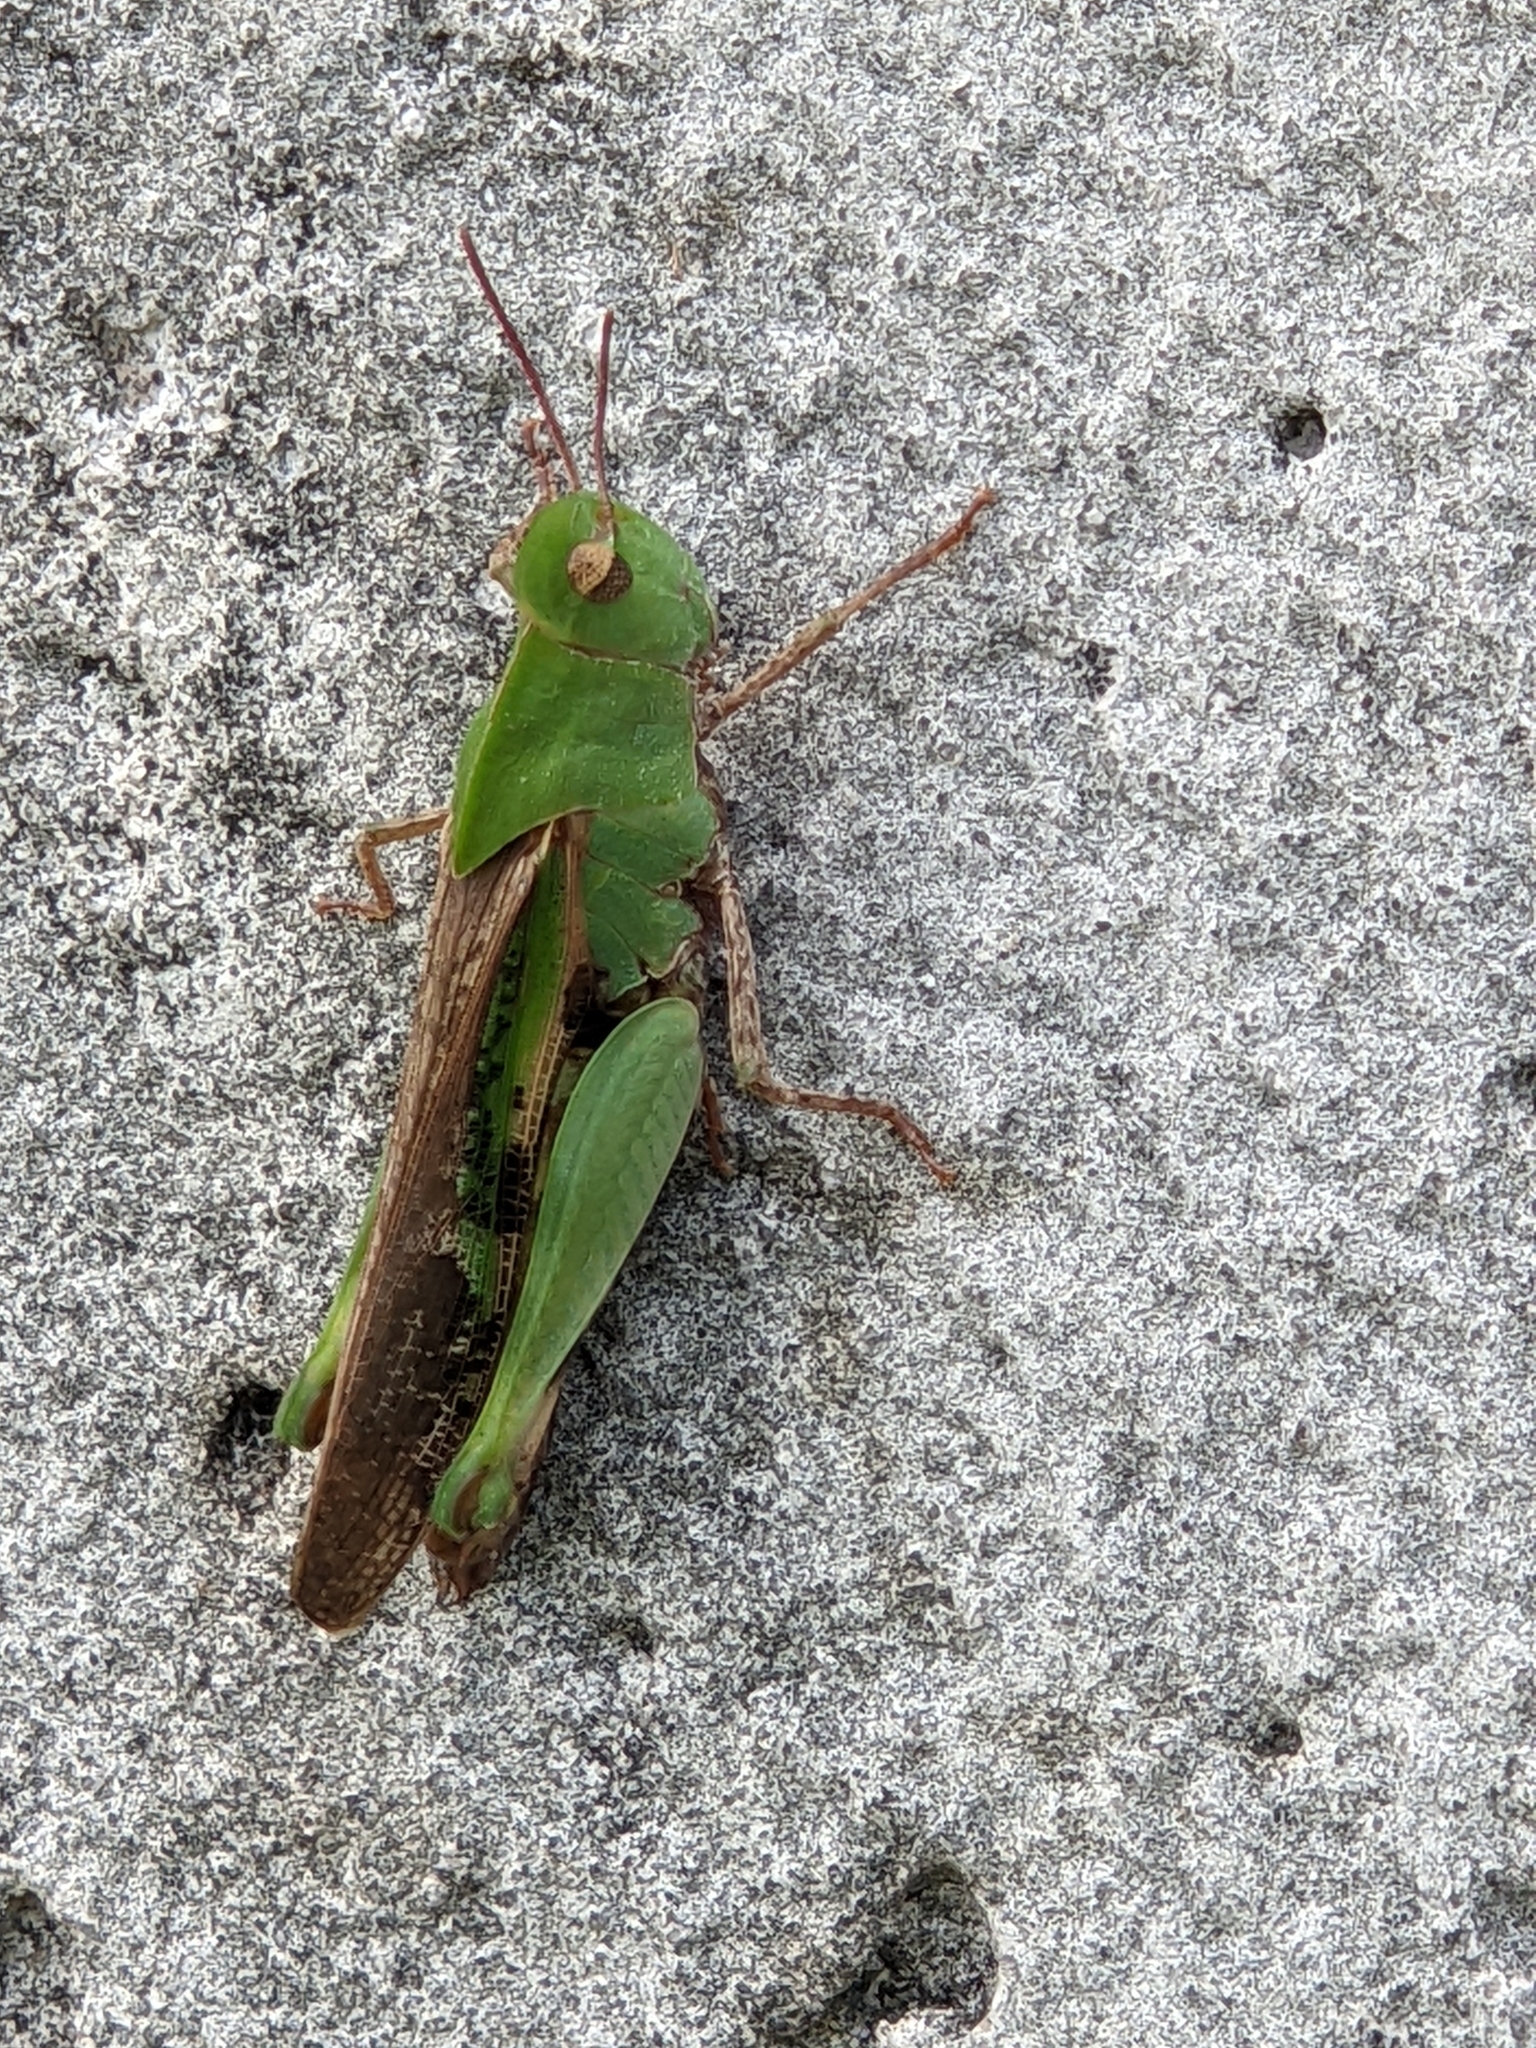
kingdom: Animalia
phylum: Arthropoda
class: Insecta
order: Orthoptera
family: Acrididae
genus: Chortophaga
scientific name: Chortophaga viridifasciata
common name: Green-striped grasshopper
